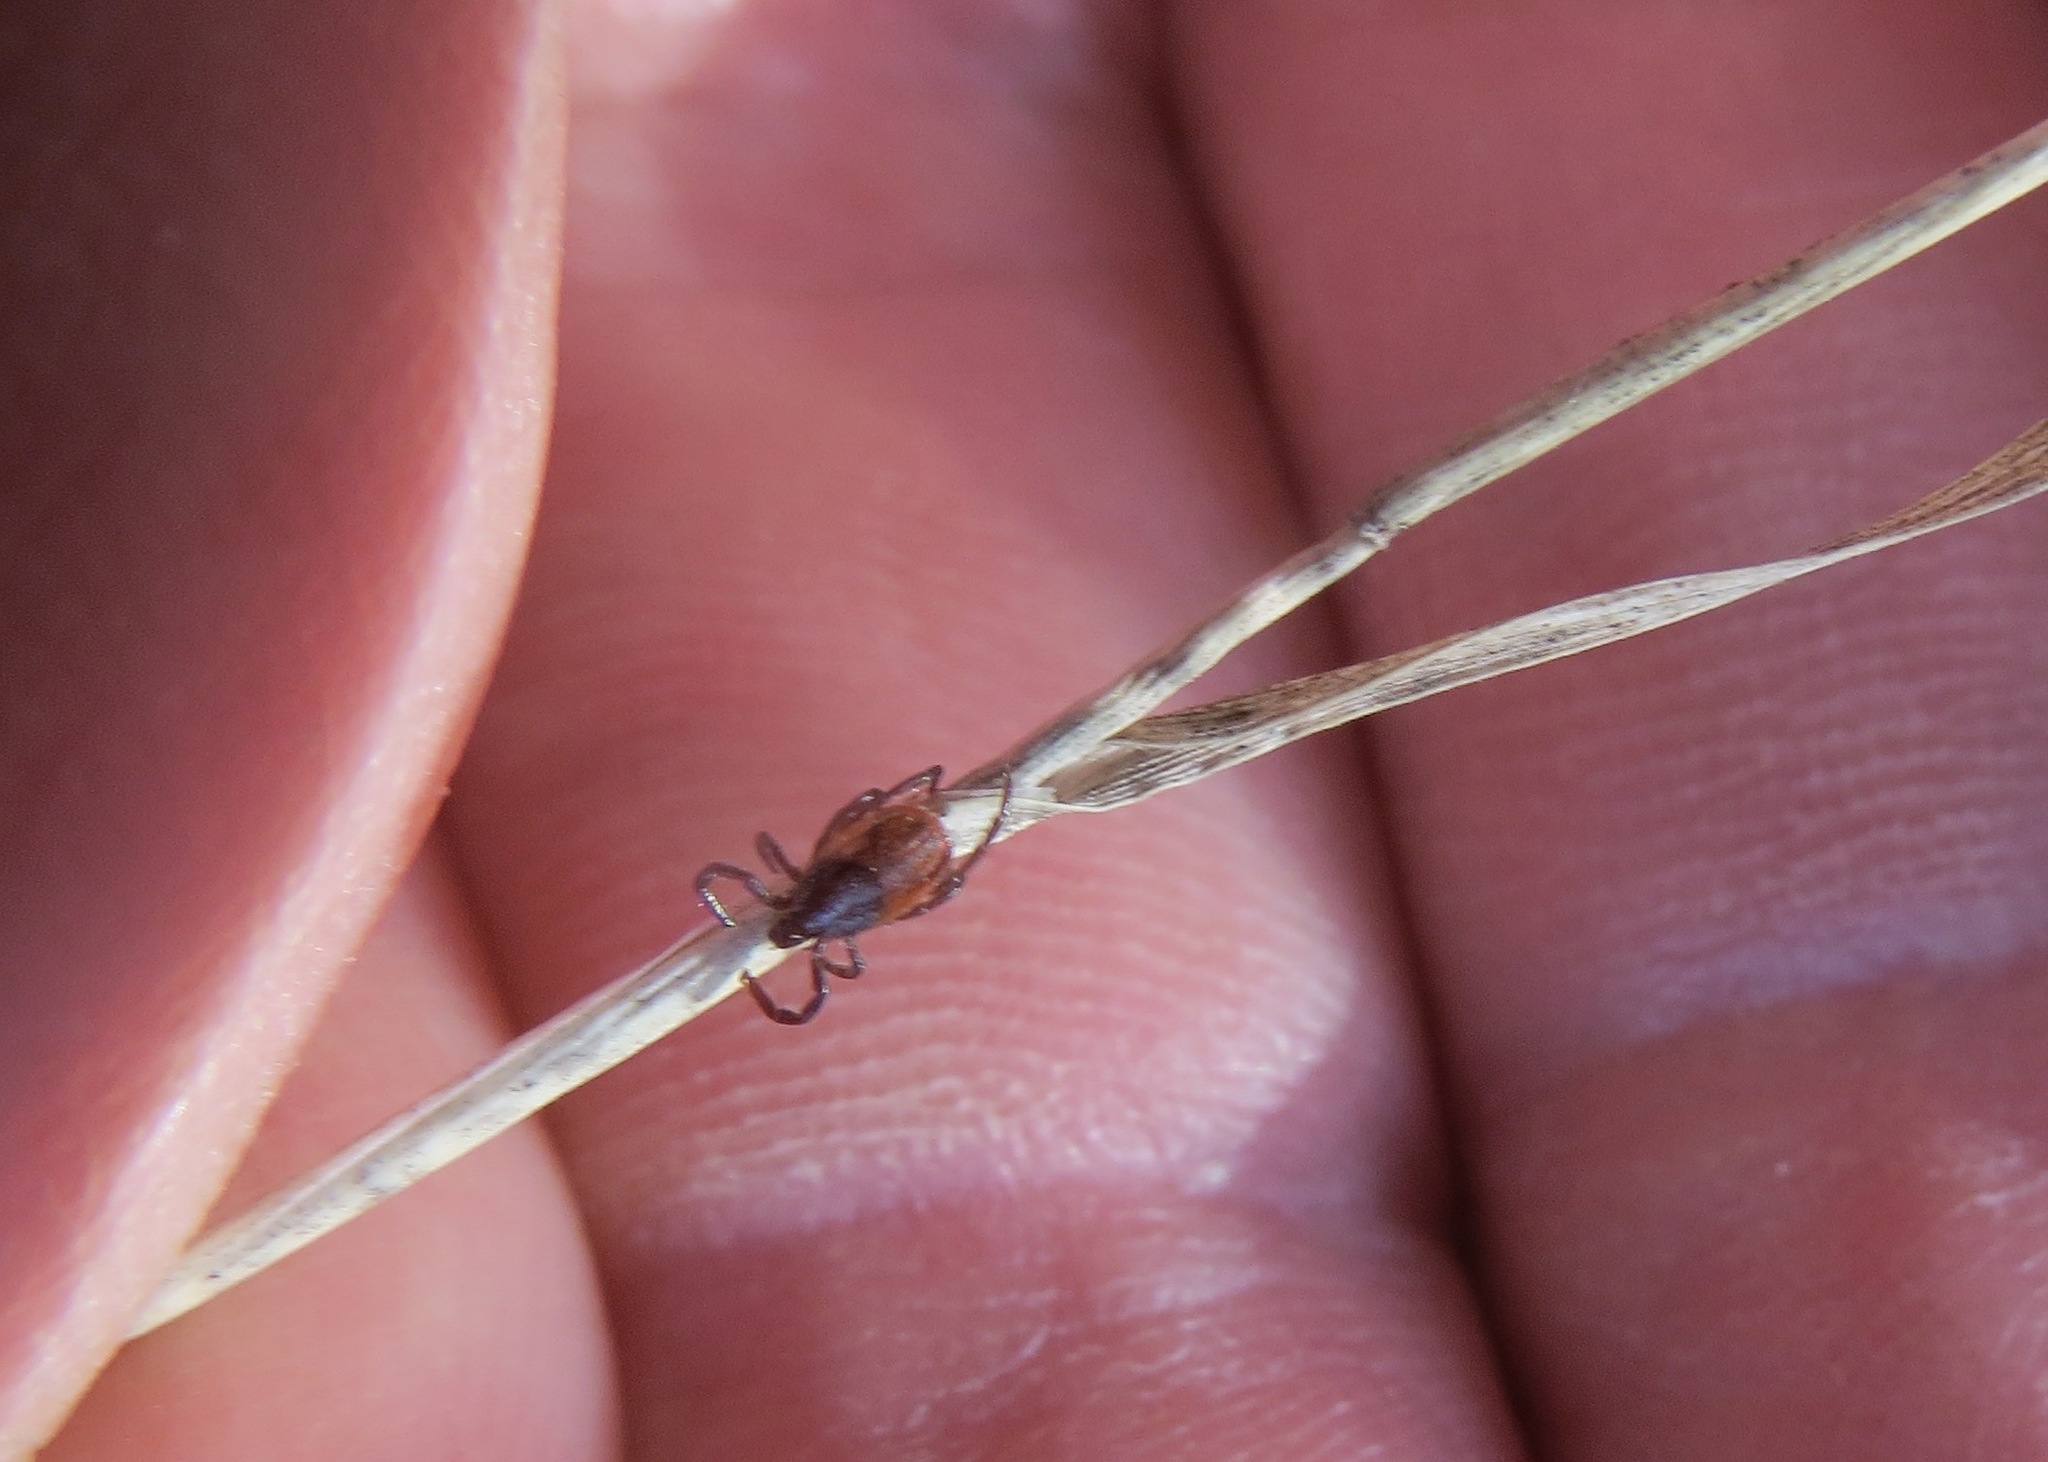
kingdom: Animalia
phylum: Arthropoda
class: Arachnida
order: Ixodida
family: Ixodidae
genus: Ixodes
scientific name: Ixodes pacificus
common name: California black-legged tick
